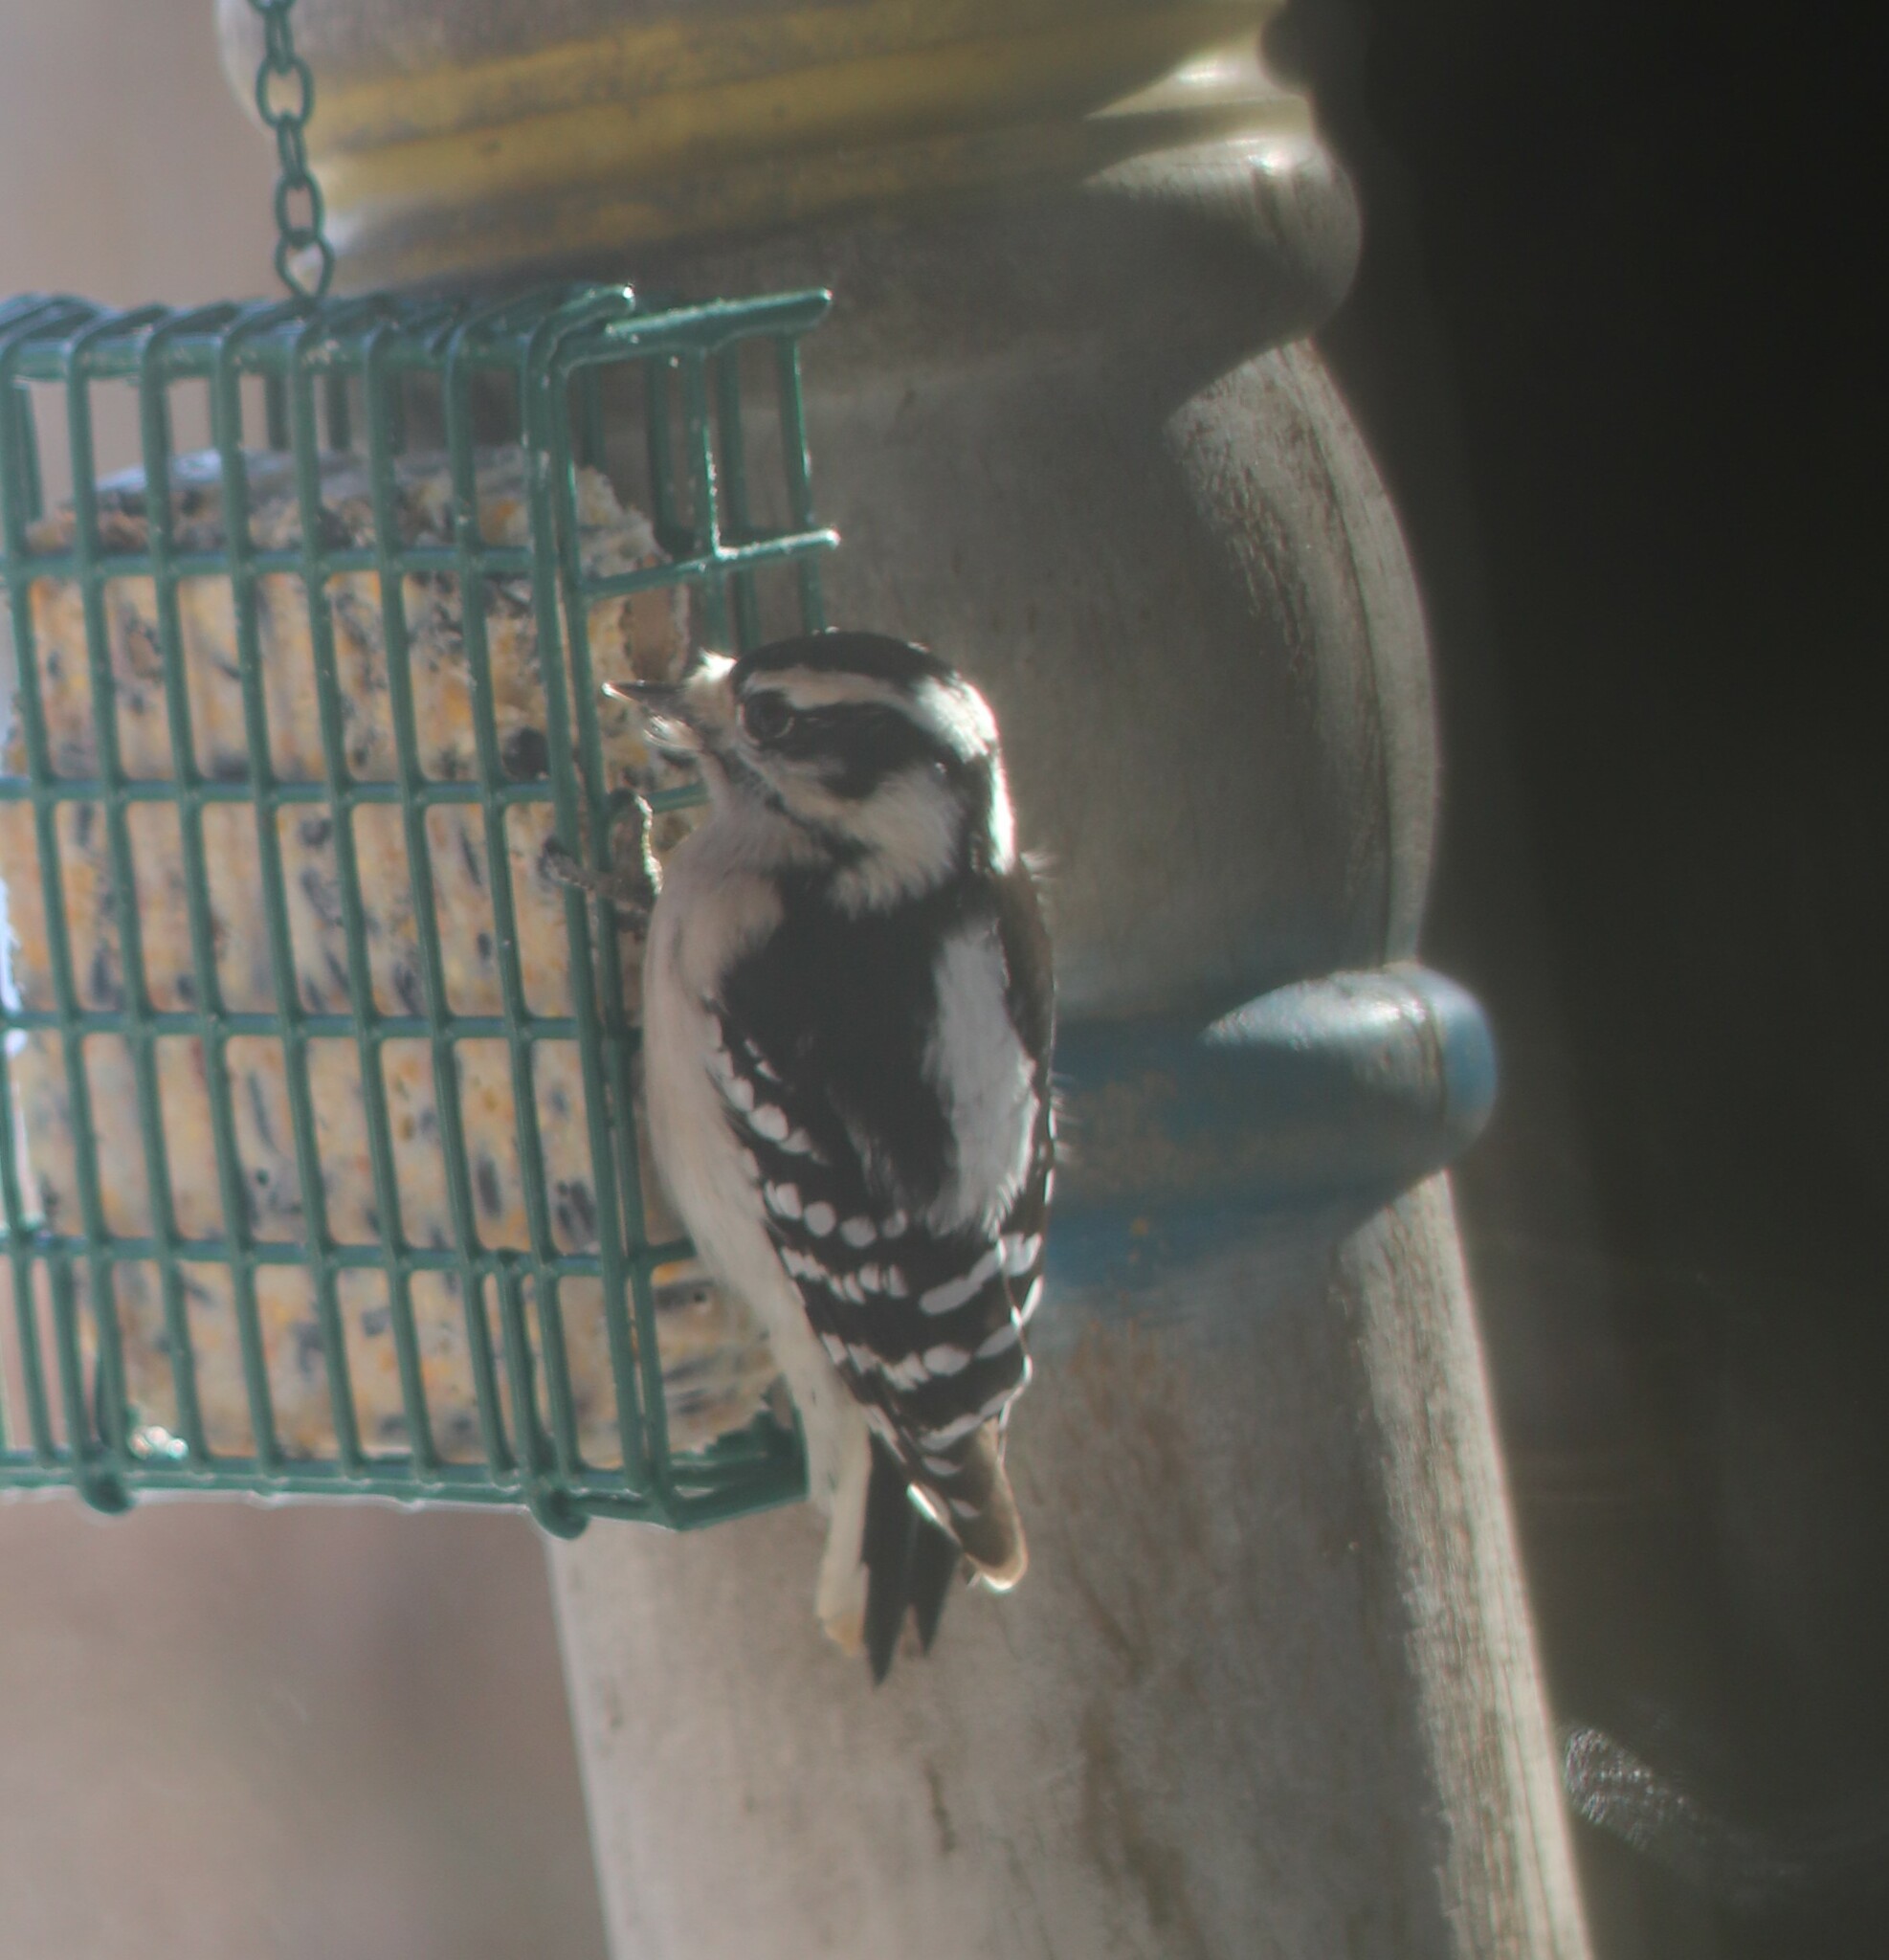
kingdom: Animalia
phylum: Chordata
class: Aves
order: Piciformes
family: Picidae
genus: Dryobates
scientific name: Dryobates pubescens
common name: Downy woodpecker
